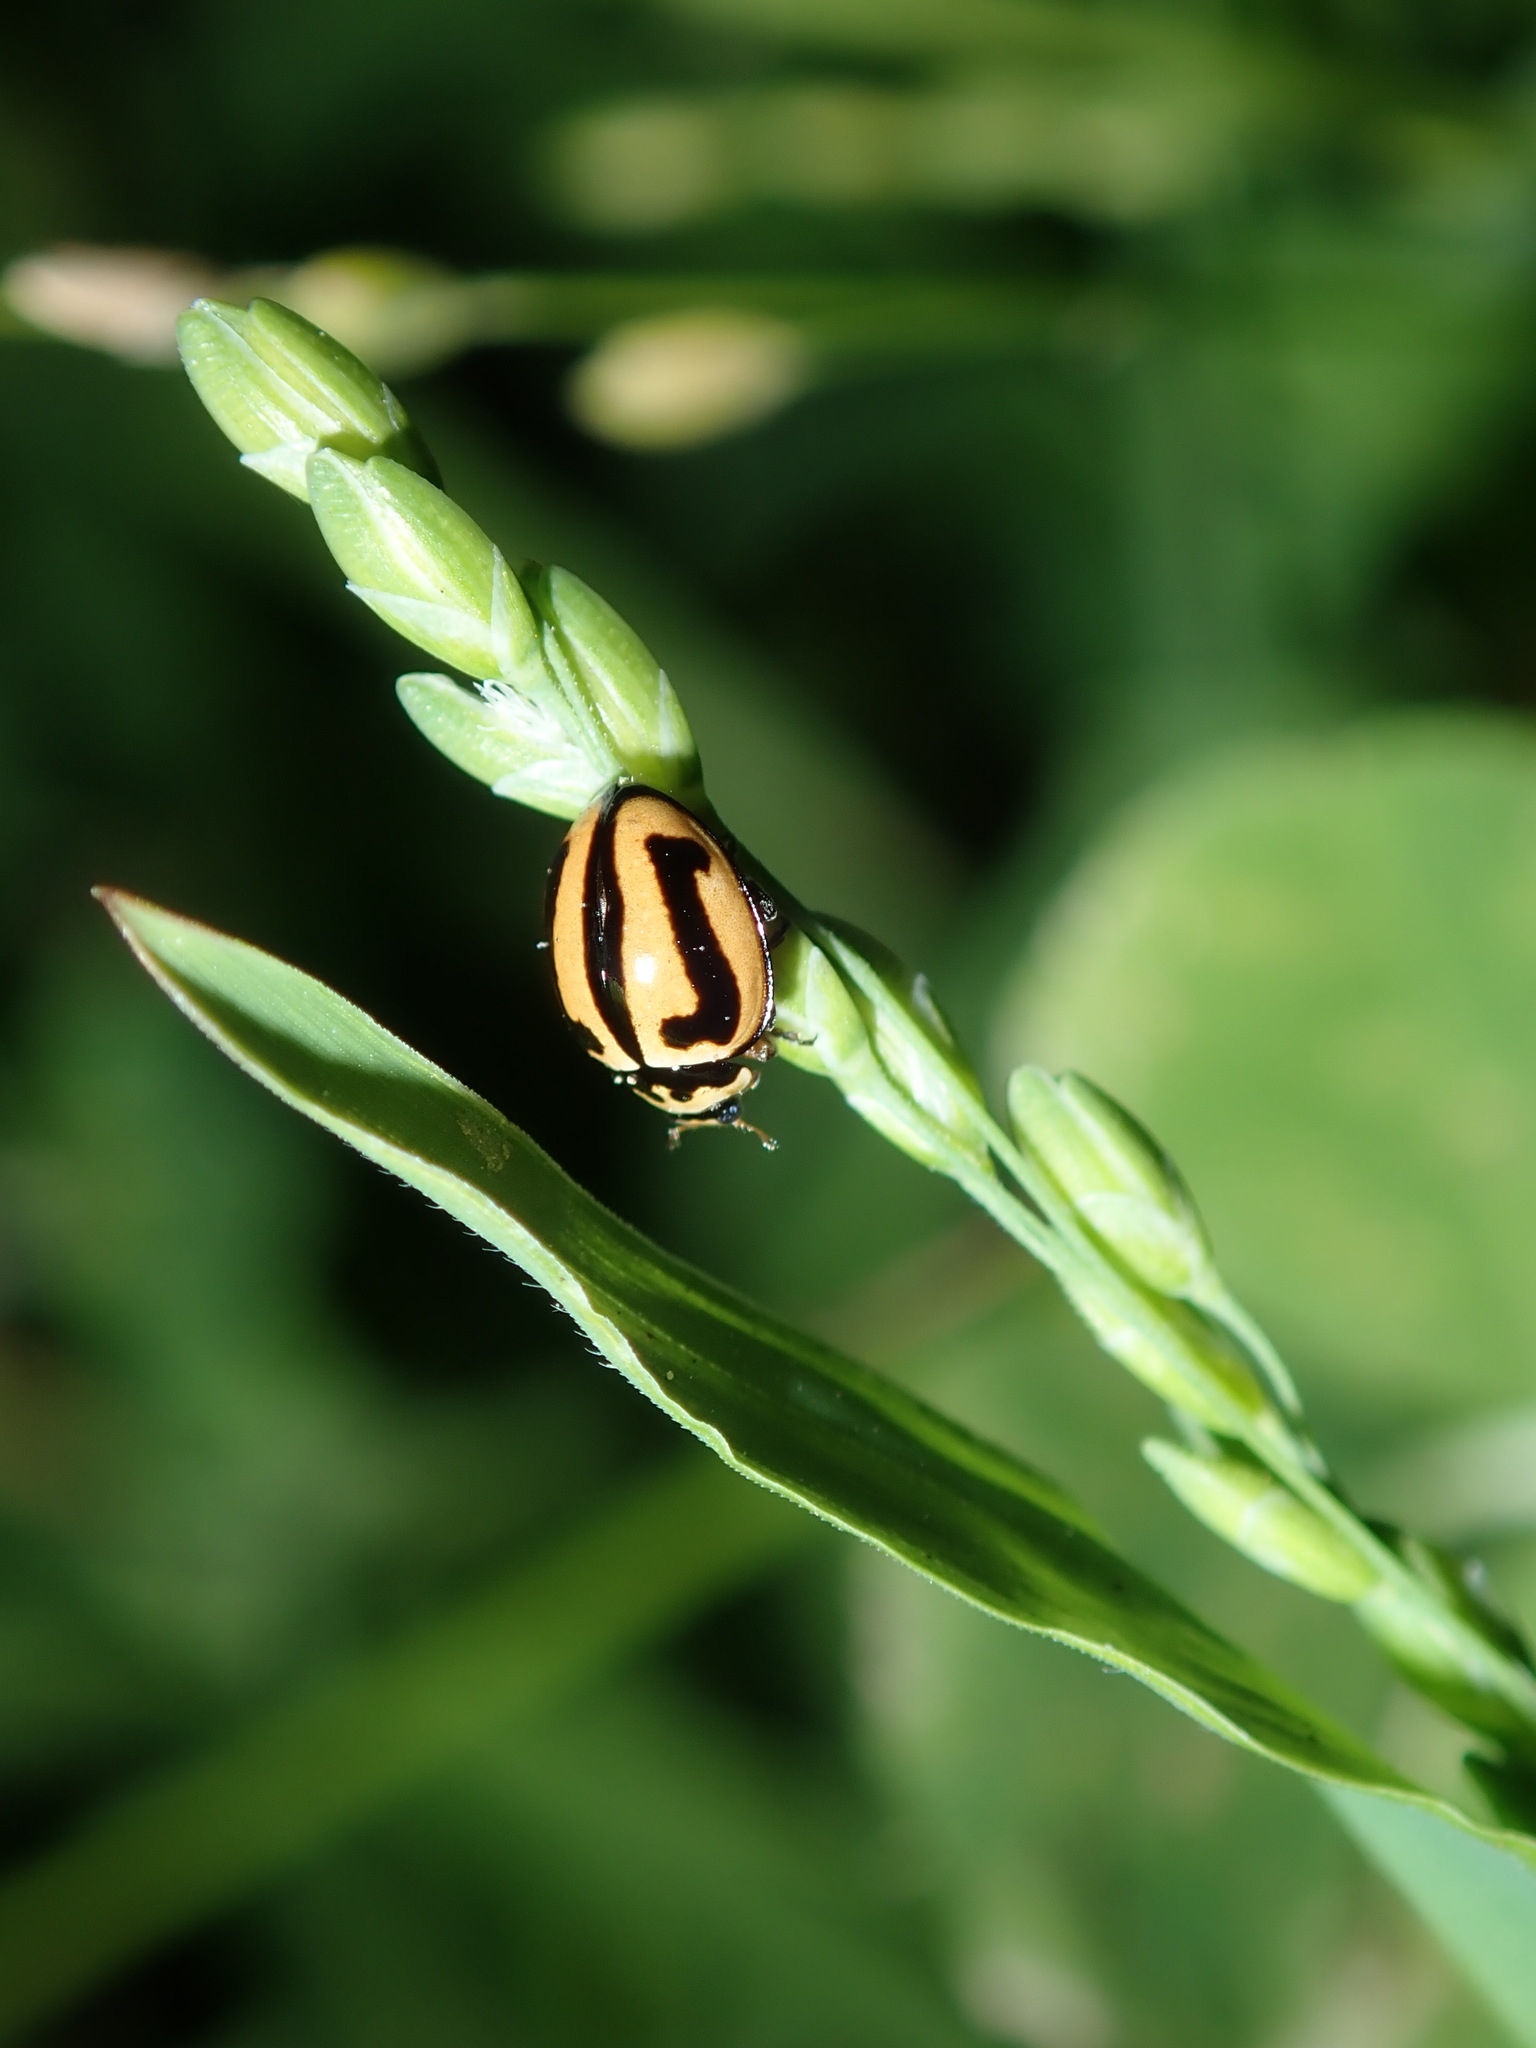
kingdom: Animalia
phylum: Arthropoda
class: Insecta
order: Coleoptera
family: Coccinellidae
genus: Micraspis
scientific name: Micraspis frenata
